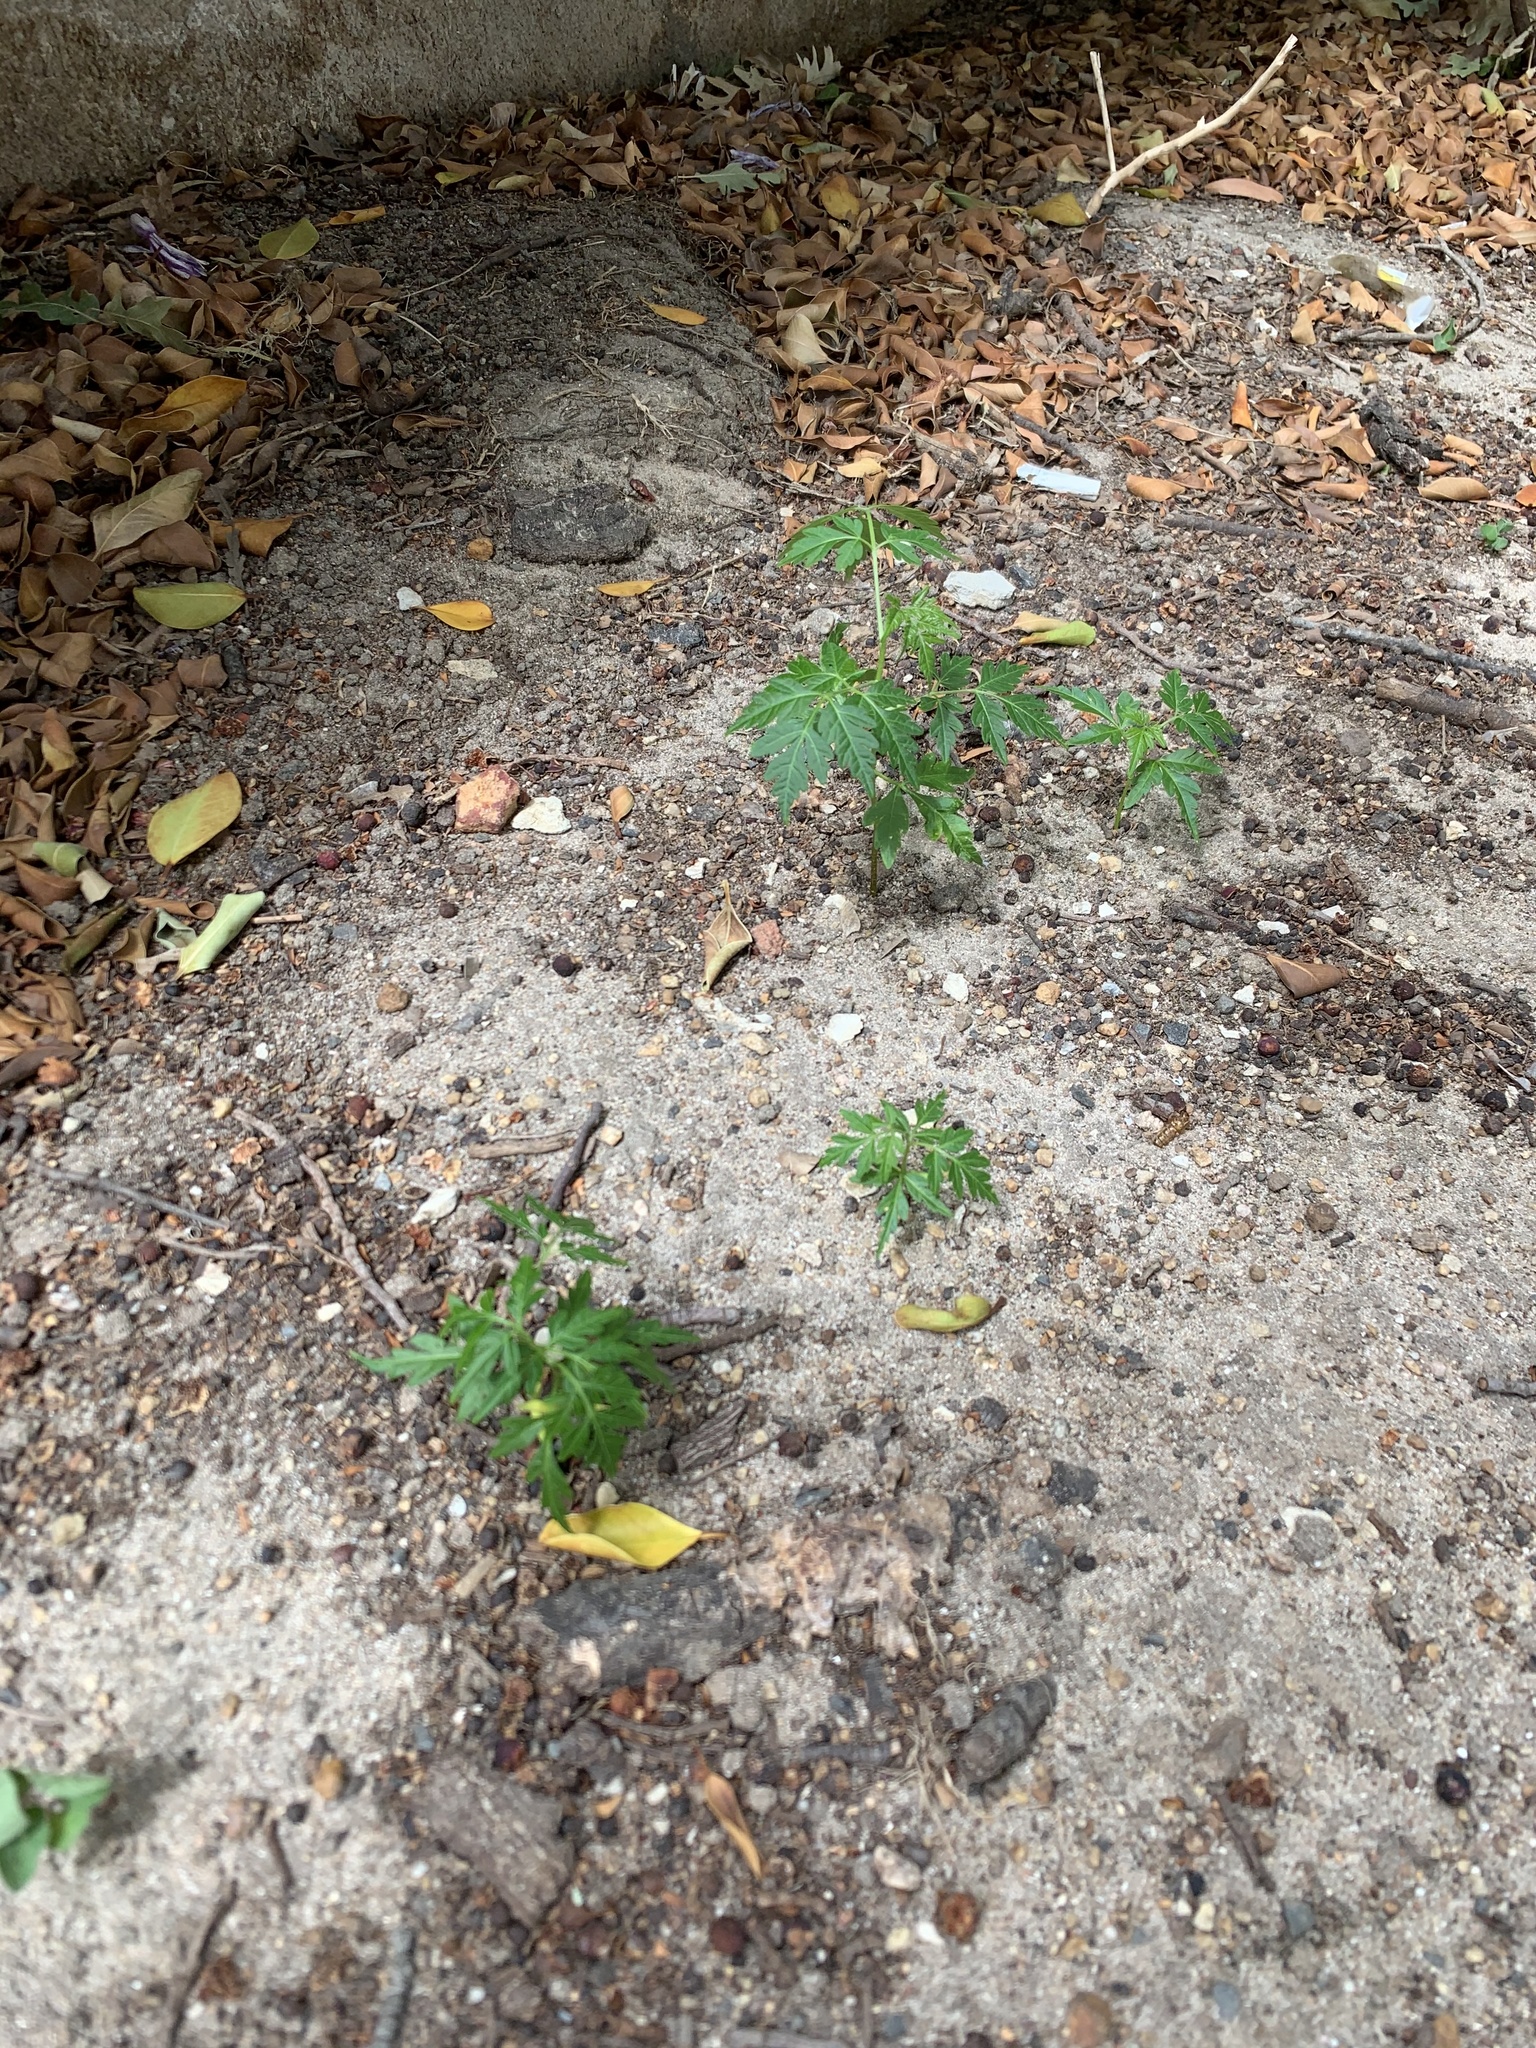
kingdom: Plantae
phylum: Tracheophyta
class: Magnoliopsida
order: Sapindales
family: Meliaceae
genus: Melia
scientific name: Melia azedarach
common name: Chinaberrytree
